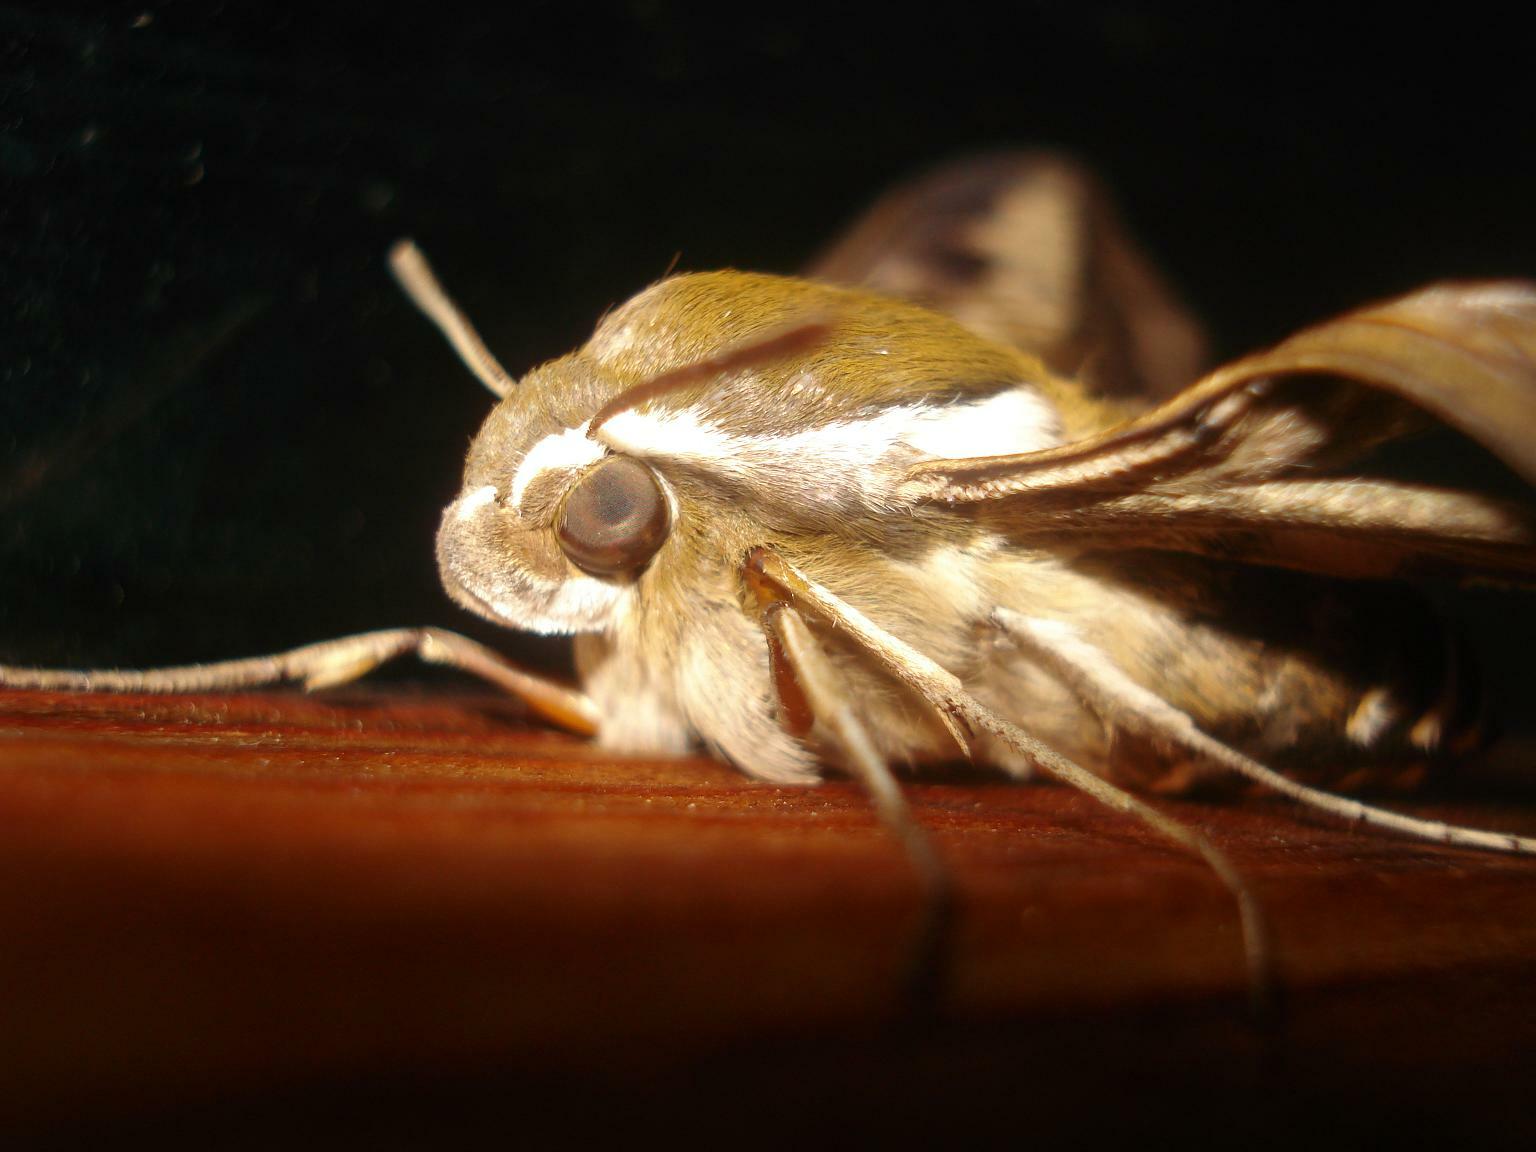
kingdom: Animalia
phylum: Arthropoda
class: Insecta
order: Lepidoptera
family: Sphingidae
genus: Hyles
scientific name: Hyles gallii
